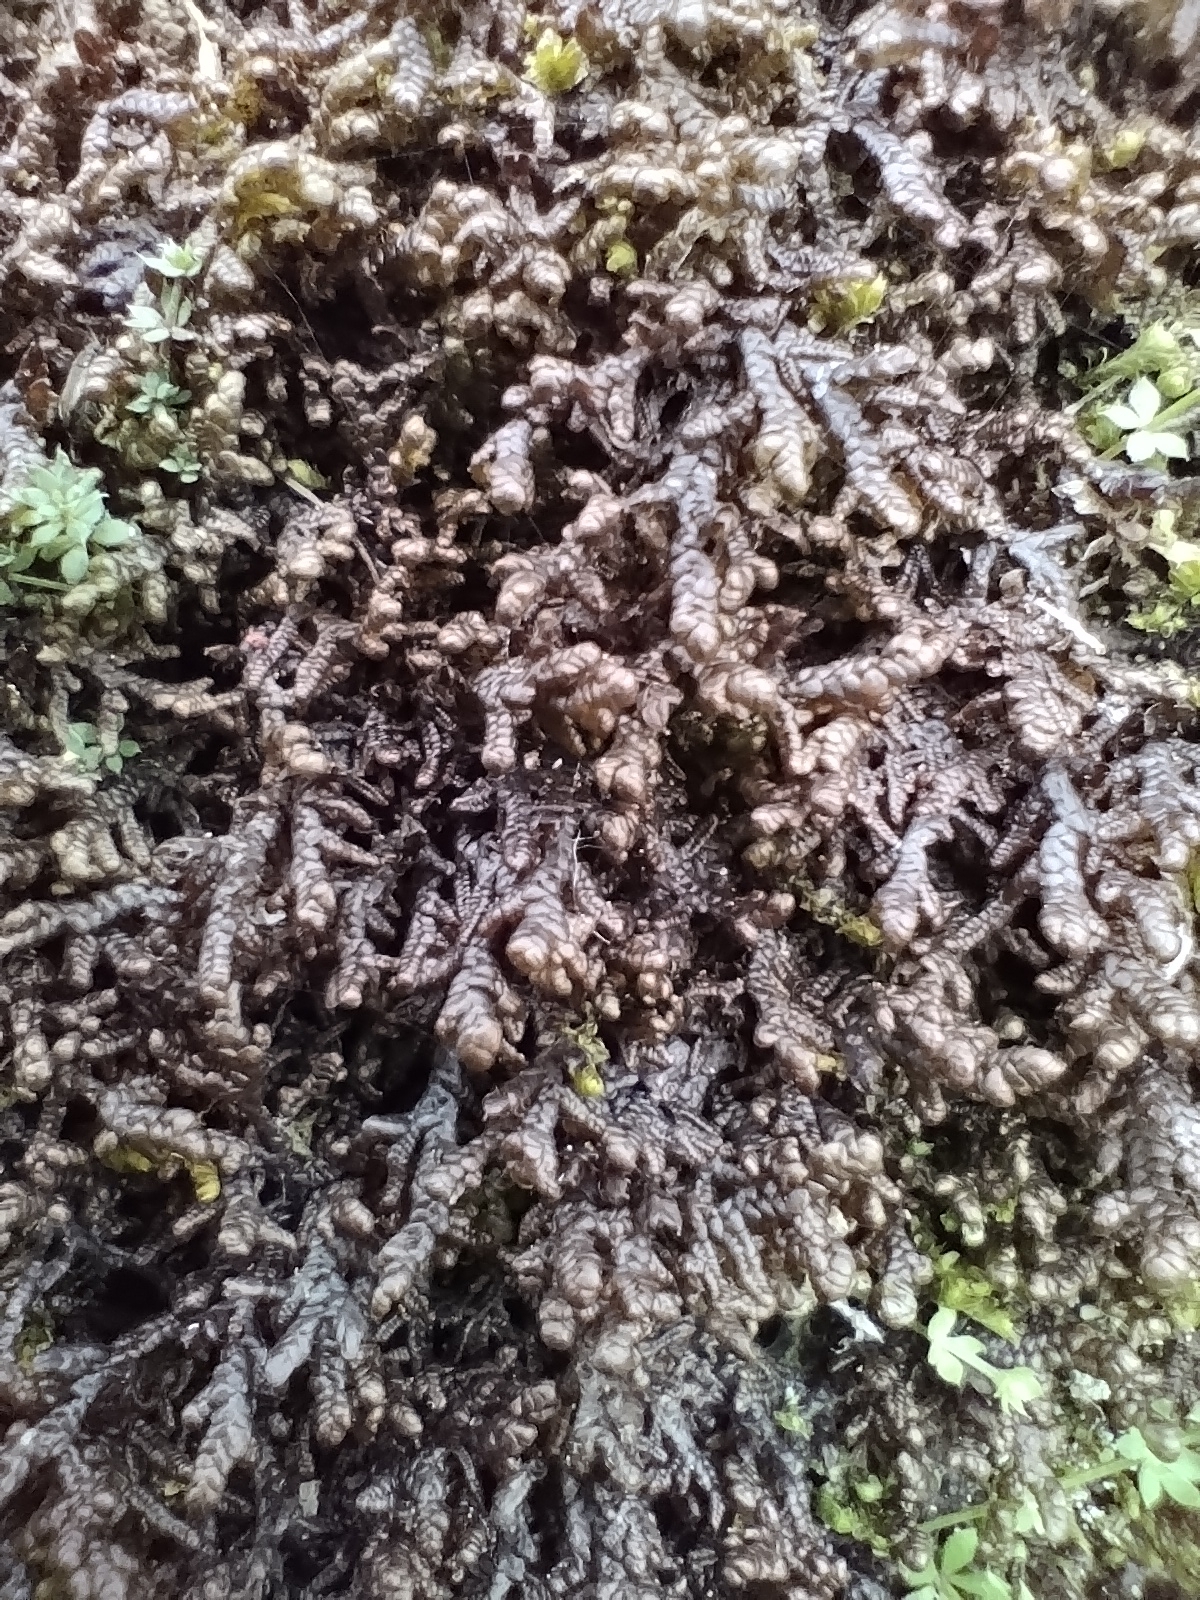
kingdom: Plantae
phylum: Marchantiophyta
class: Jungermanniopsida
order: Porellales
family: Frullaniaceae
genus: Frullania
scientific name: Frullania tamarisci
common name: Tamarisk scalewort
